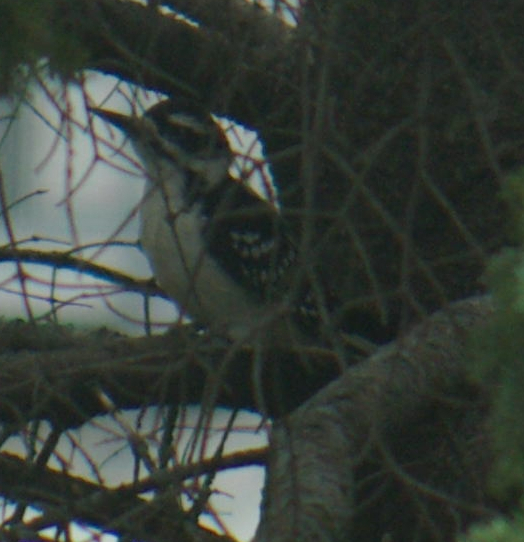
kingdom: Animalia
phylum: Chordata
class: Aves
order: Piciformes
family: Picidae
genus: Leuconotopicus
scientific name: Leuconotopicus villosus
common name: Hairy woodpecker
